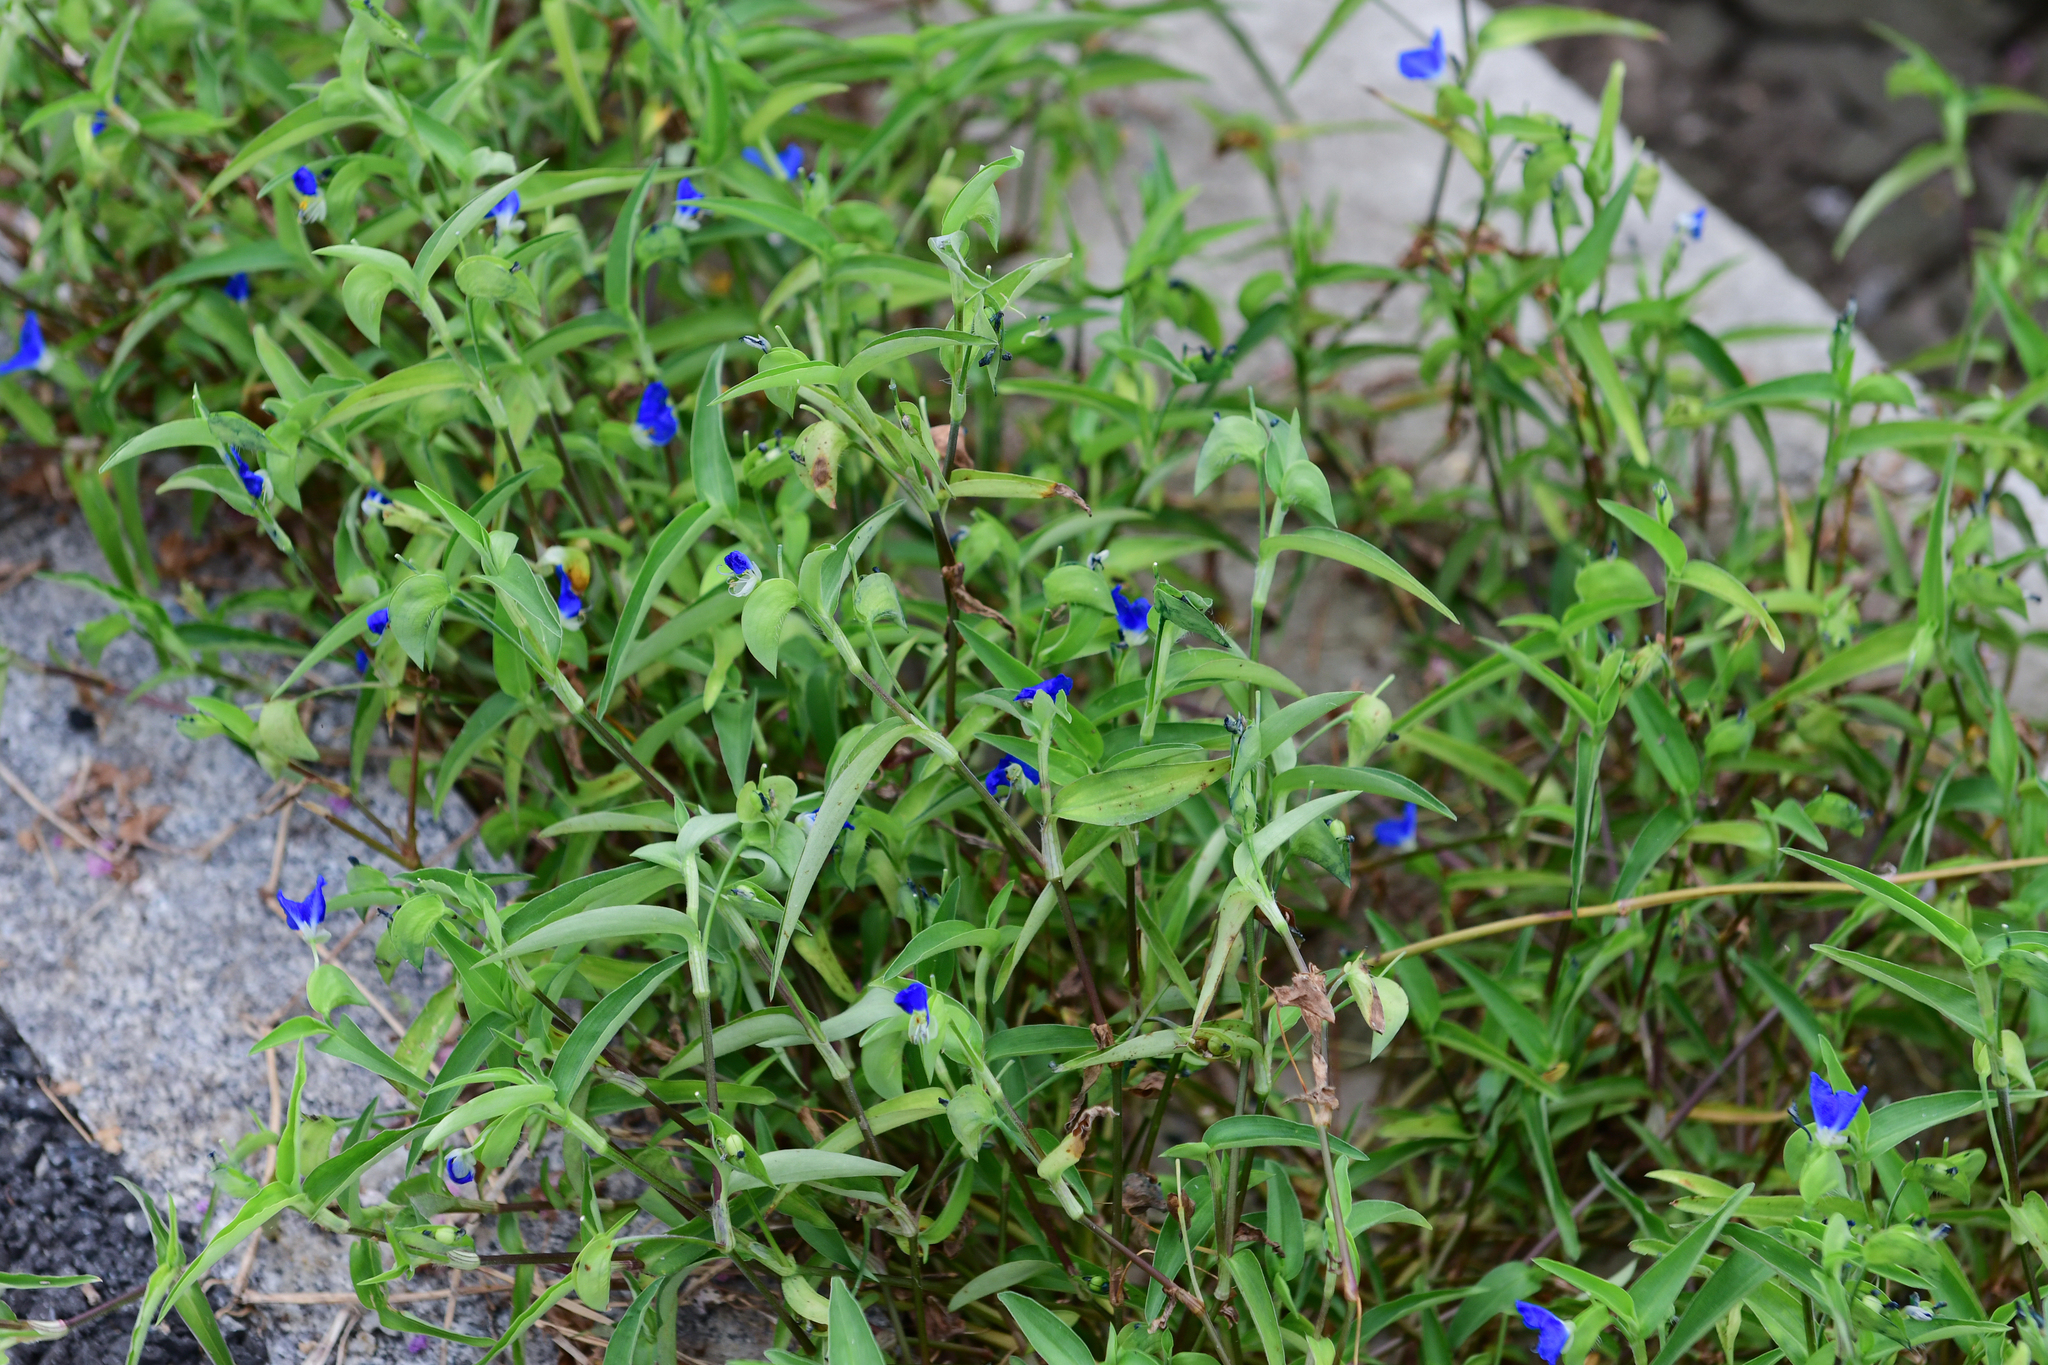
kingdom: Plantae
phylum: Tracheophyta
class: Liliopsida
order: Commelinales
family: Commelinaceae
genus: Commelina
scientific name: Commelina communis
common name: Asiatic dayflower
